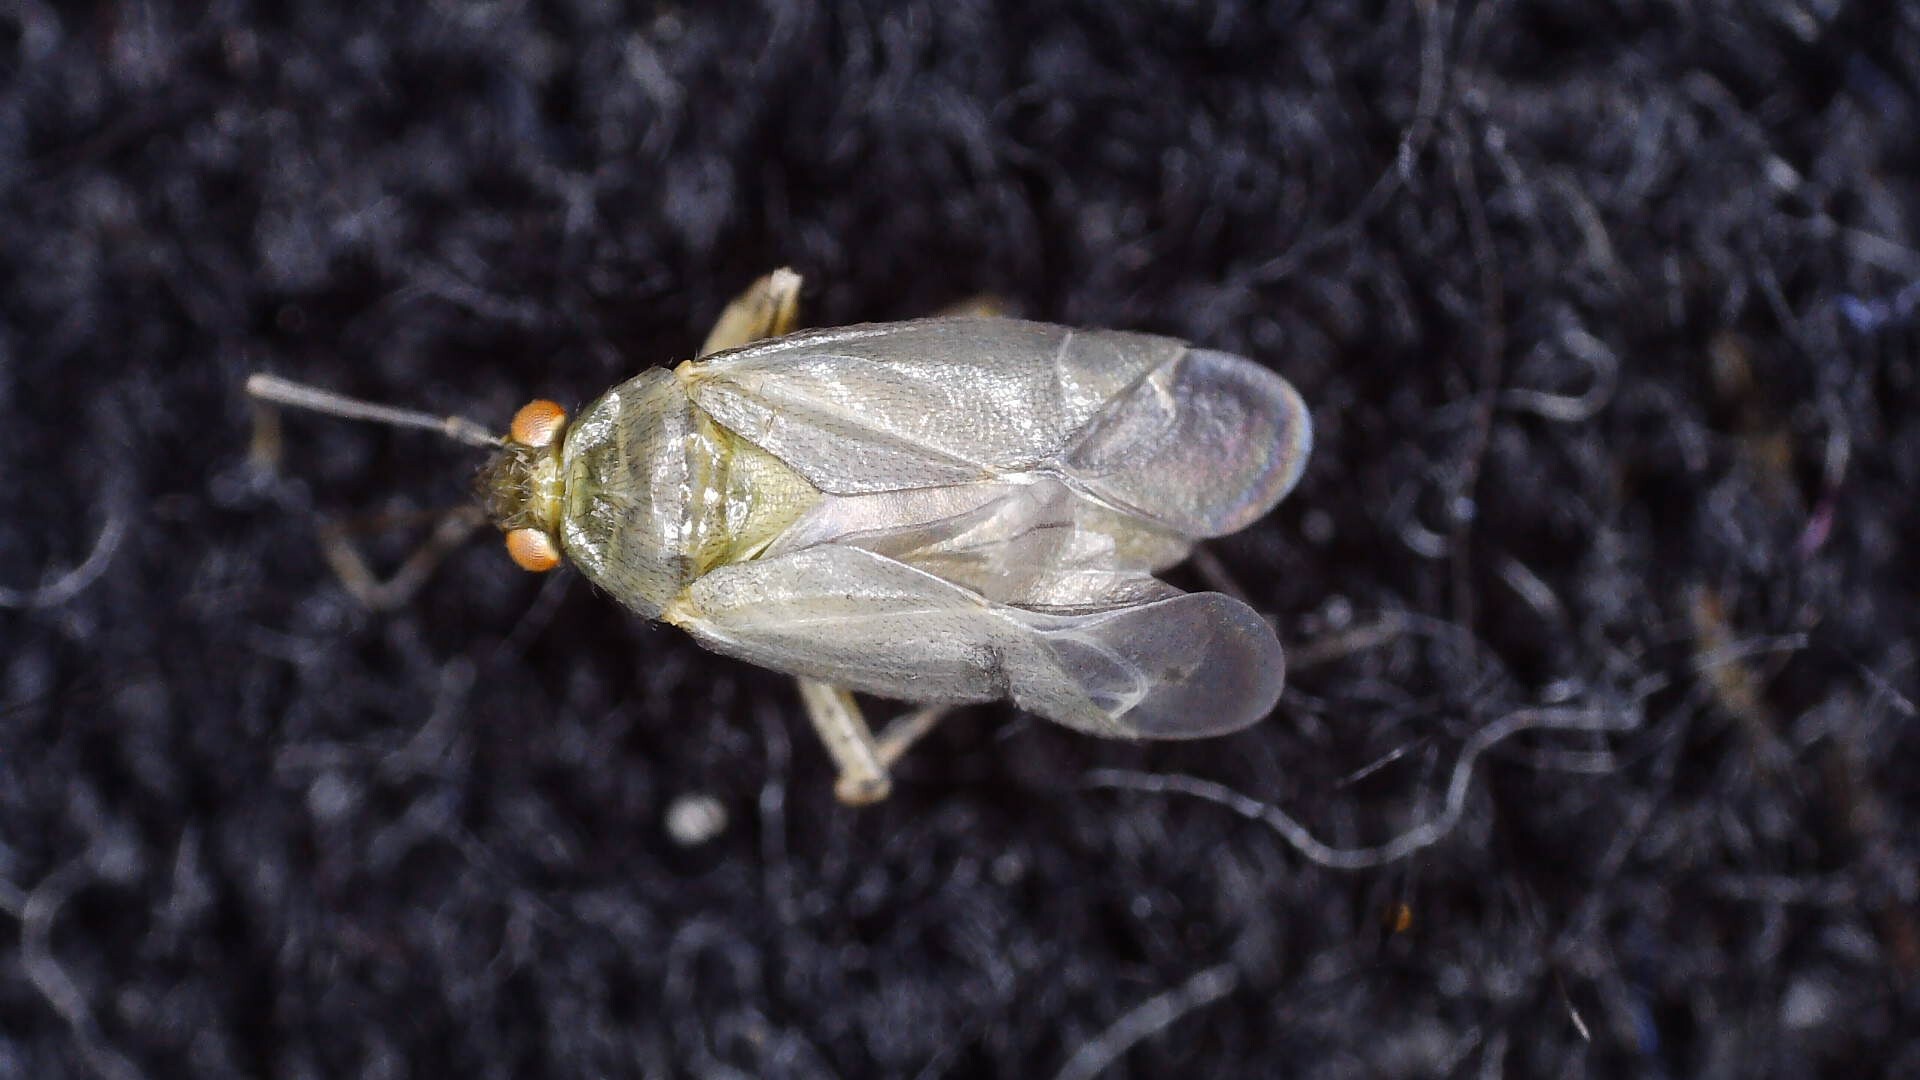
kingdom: Animalia
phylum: Arthropoda
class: Insecta
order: Hemiptera
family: Miridae
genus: Plagiognathus
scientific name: Plagiognathus chrysanthemi
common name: Plant bug
